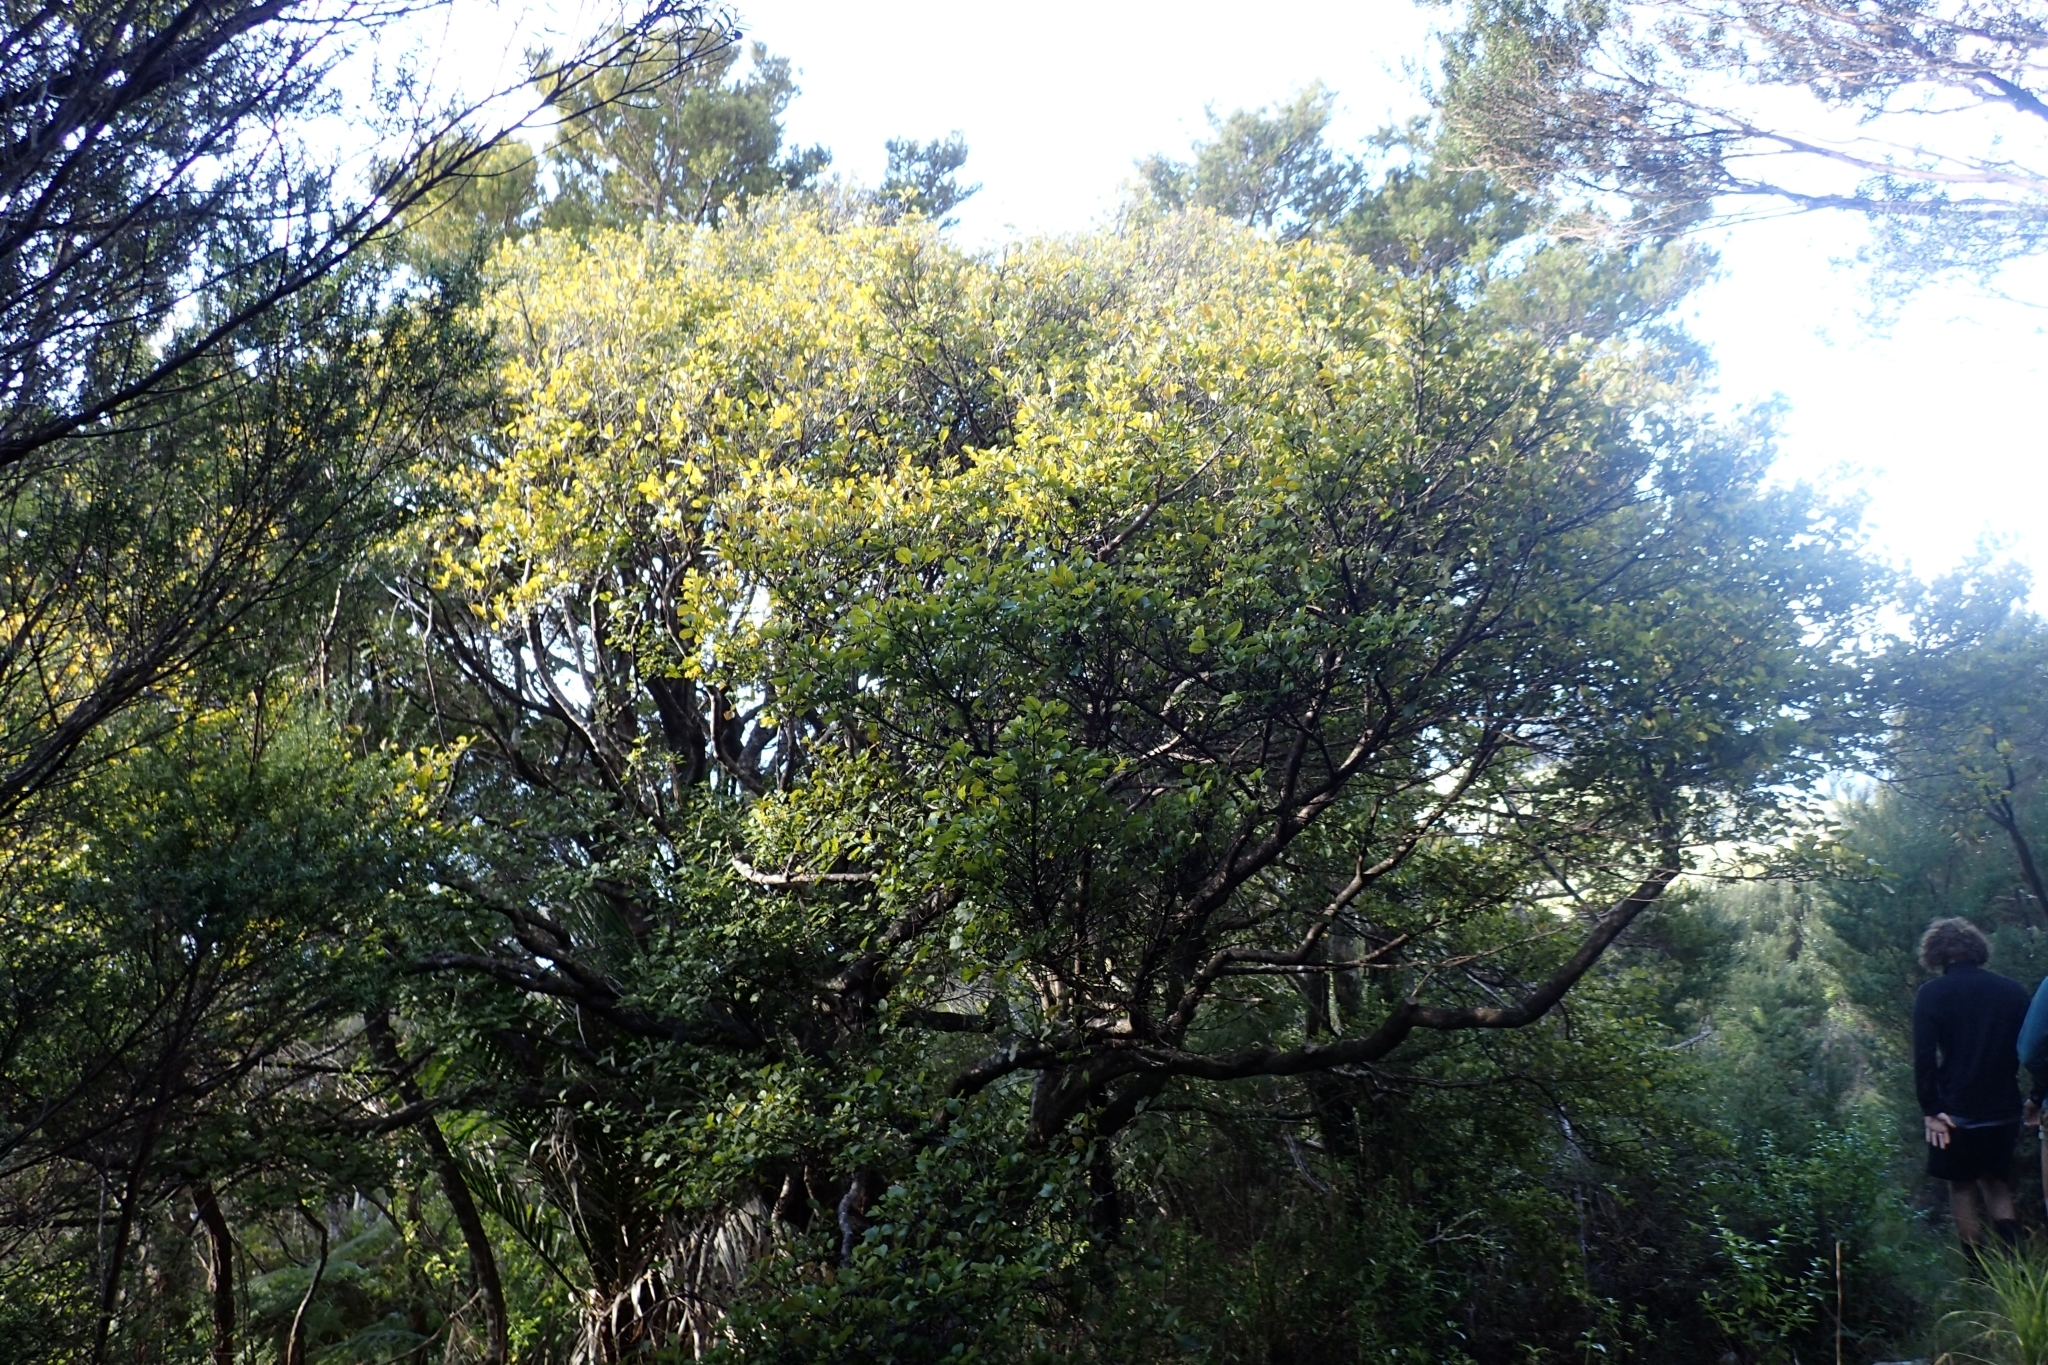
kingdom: Plantae
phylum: Tracheophyta
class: Magnoliopsida
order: Gentianales
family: Rubiaceae
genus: Coprosma
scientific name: Coprosma arborea
